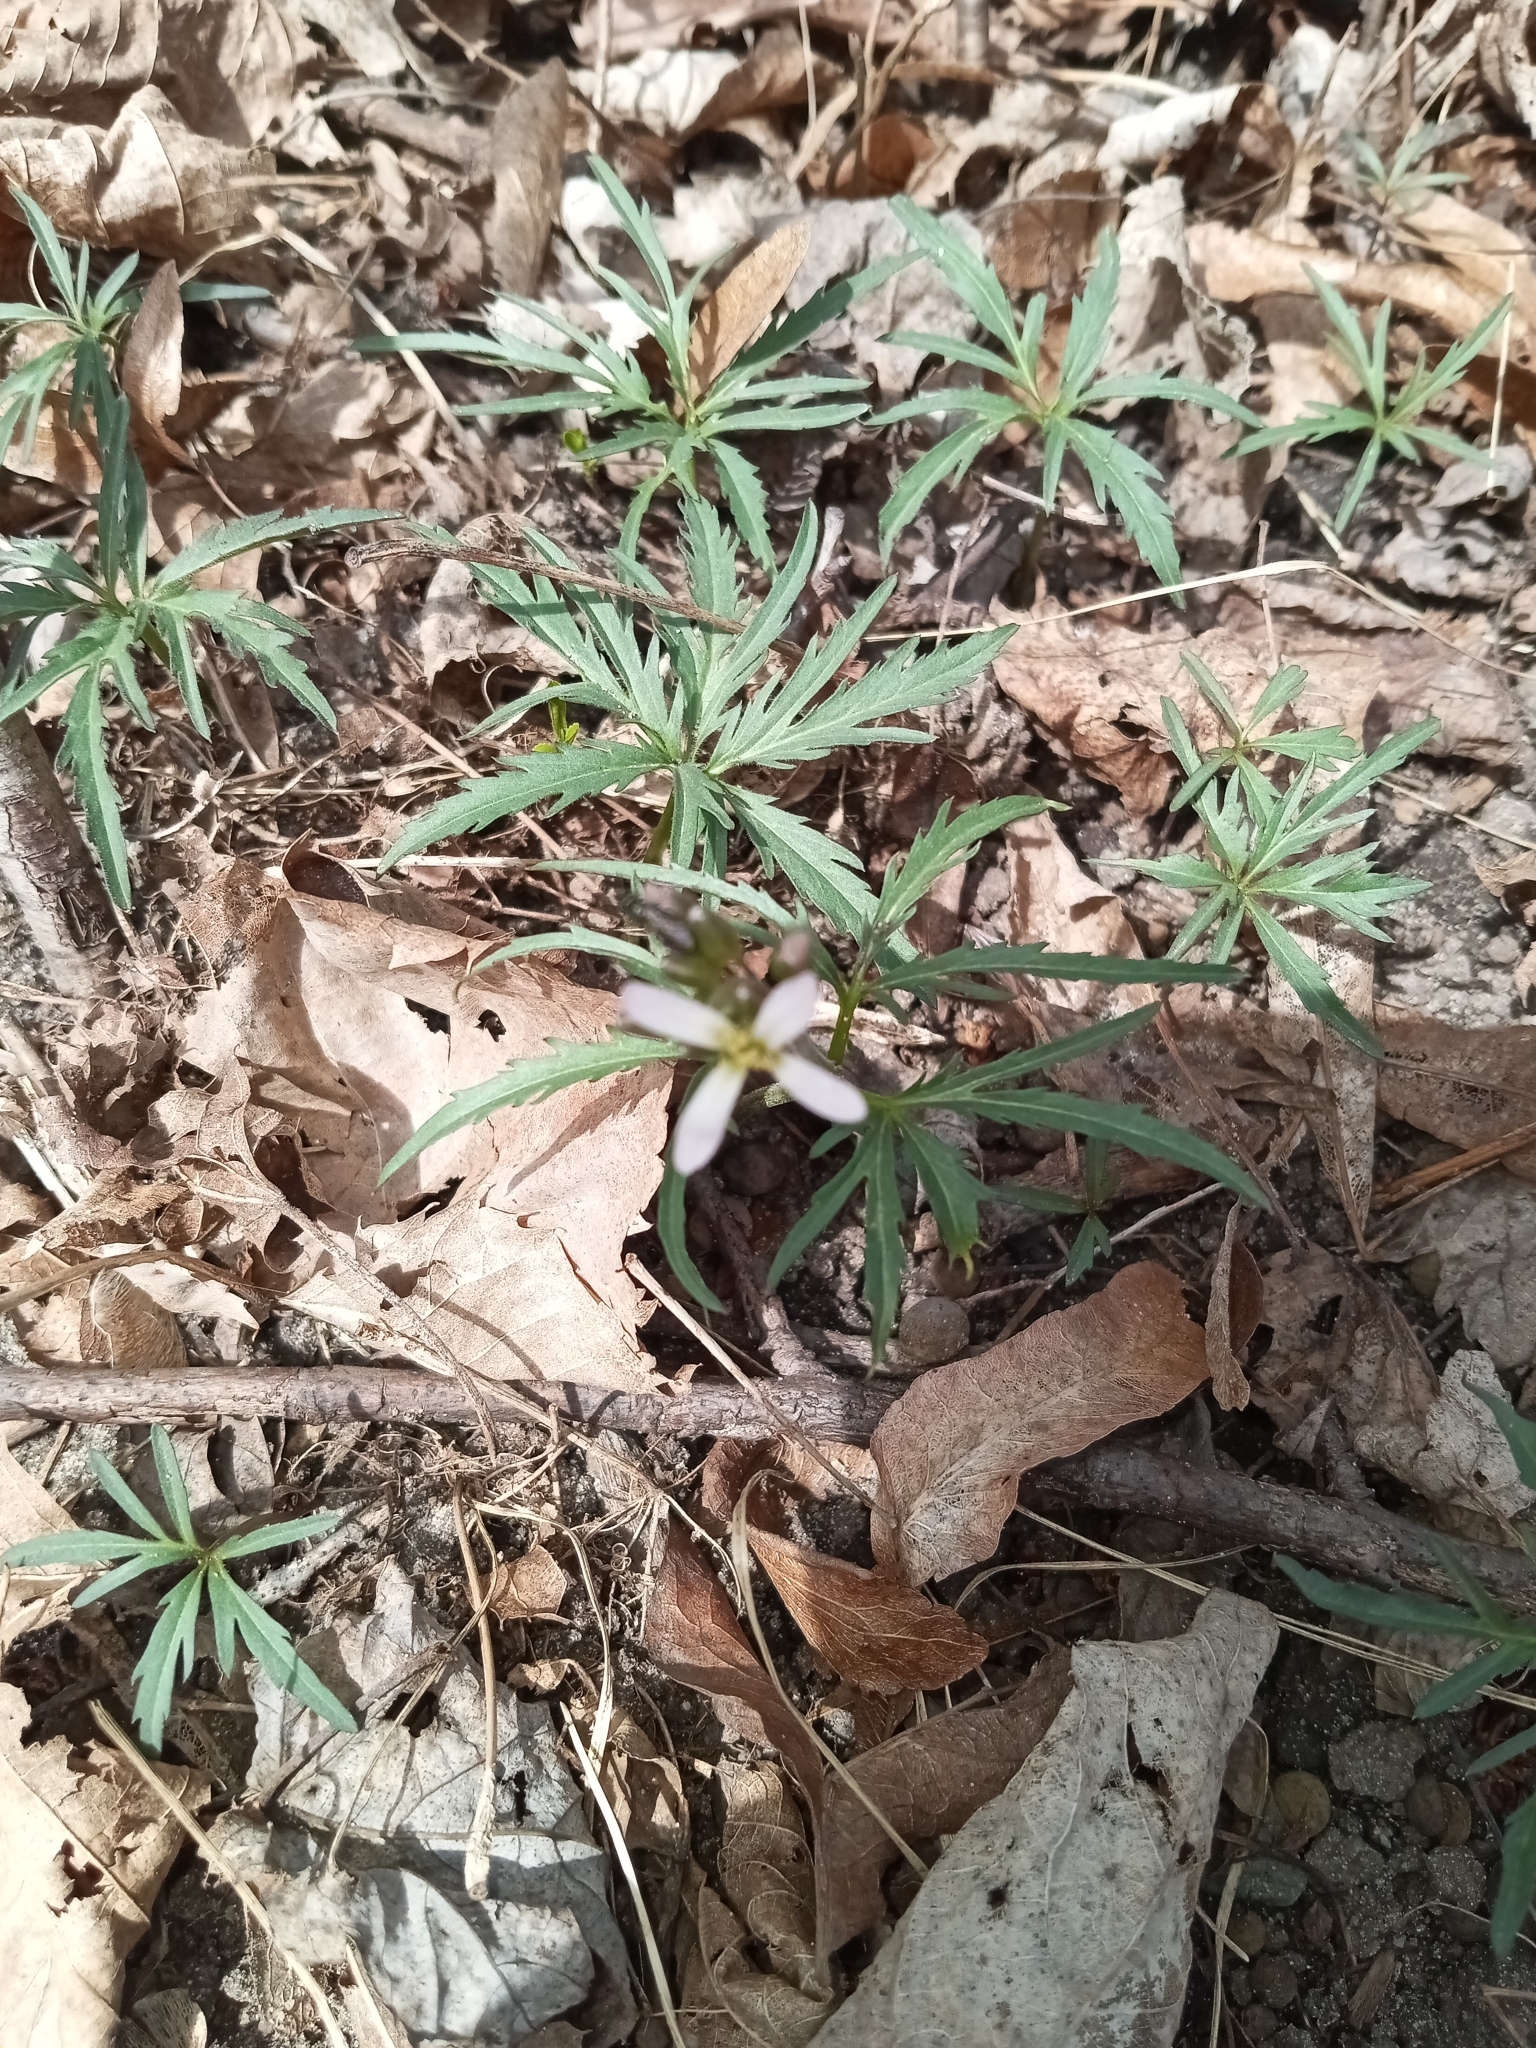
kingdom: Plantae
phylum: Tracheophyta
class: Magnoliopsida
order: Brassicales
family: Brassicaceae
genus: Cardamine
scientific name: Cardamine concatenata
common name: Cut-leaf toothcup
